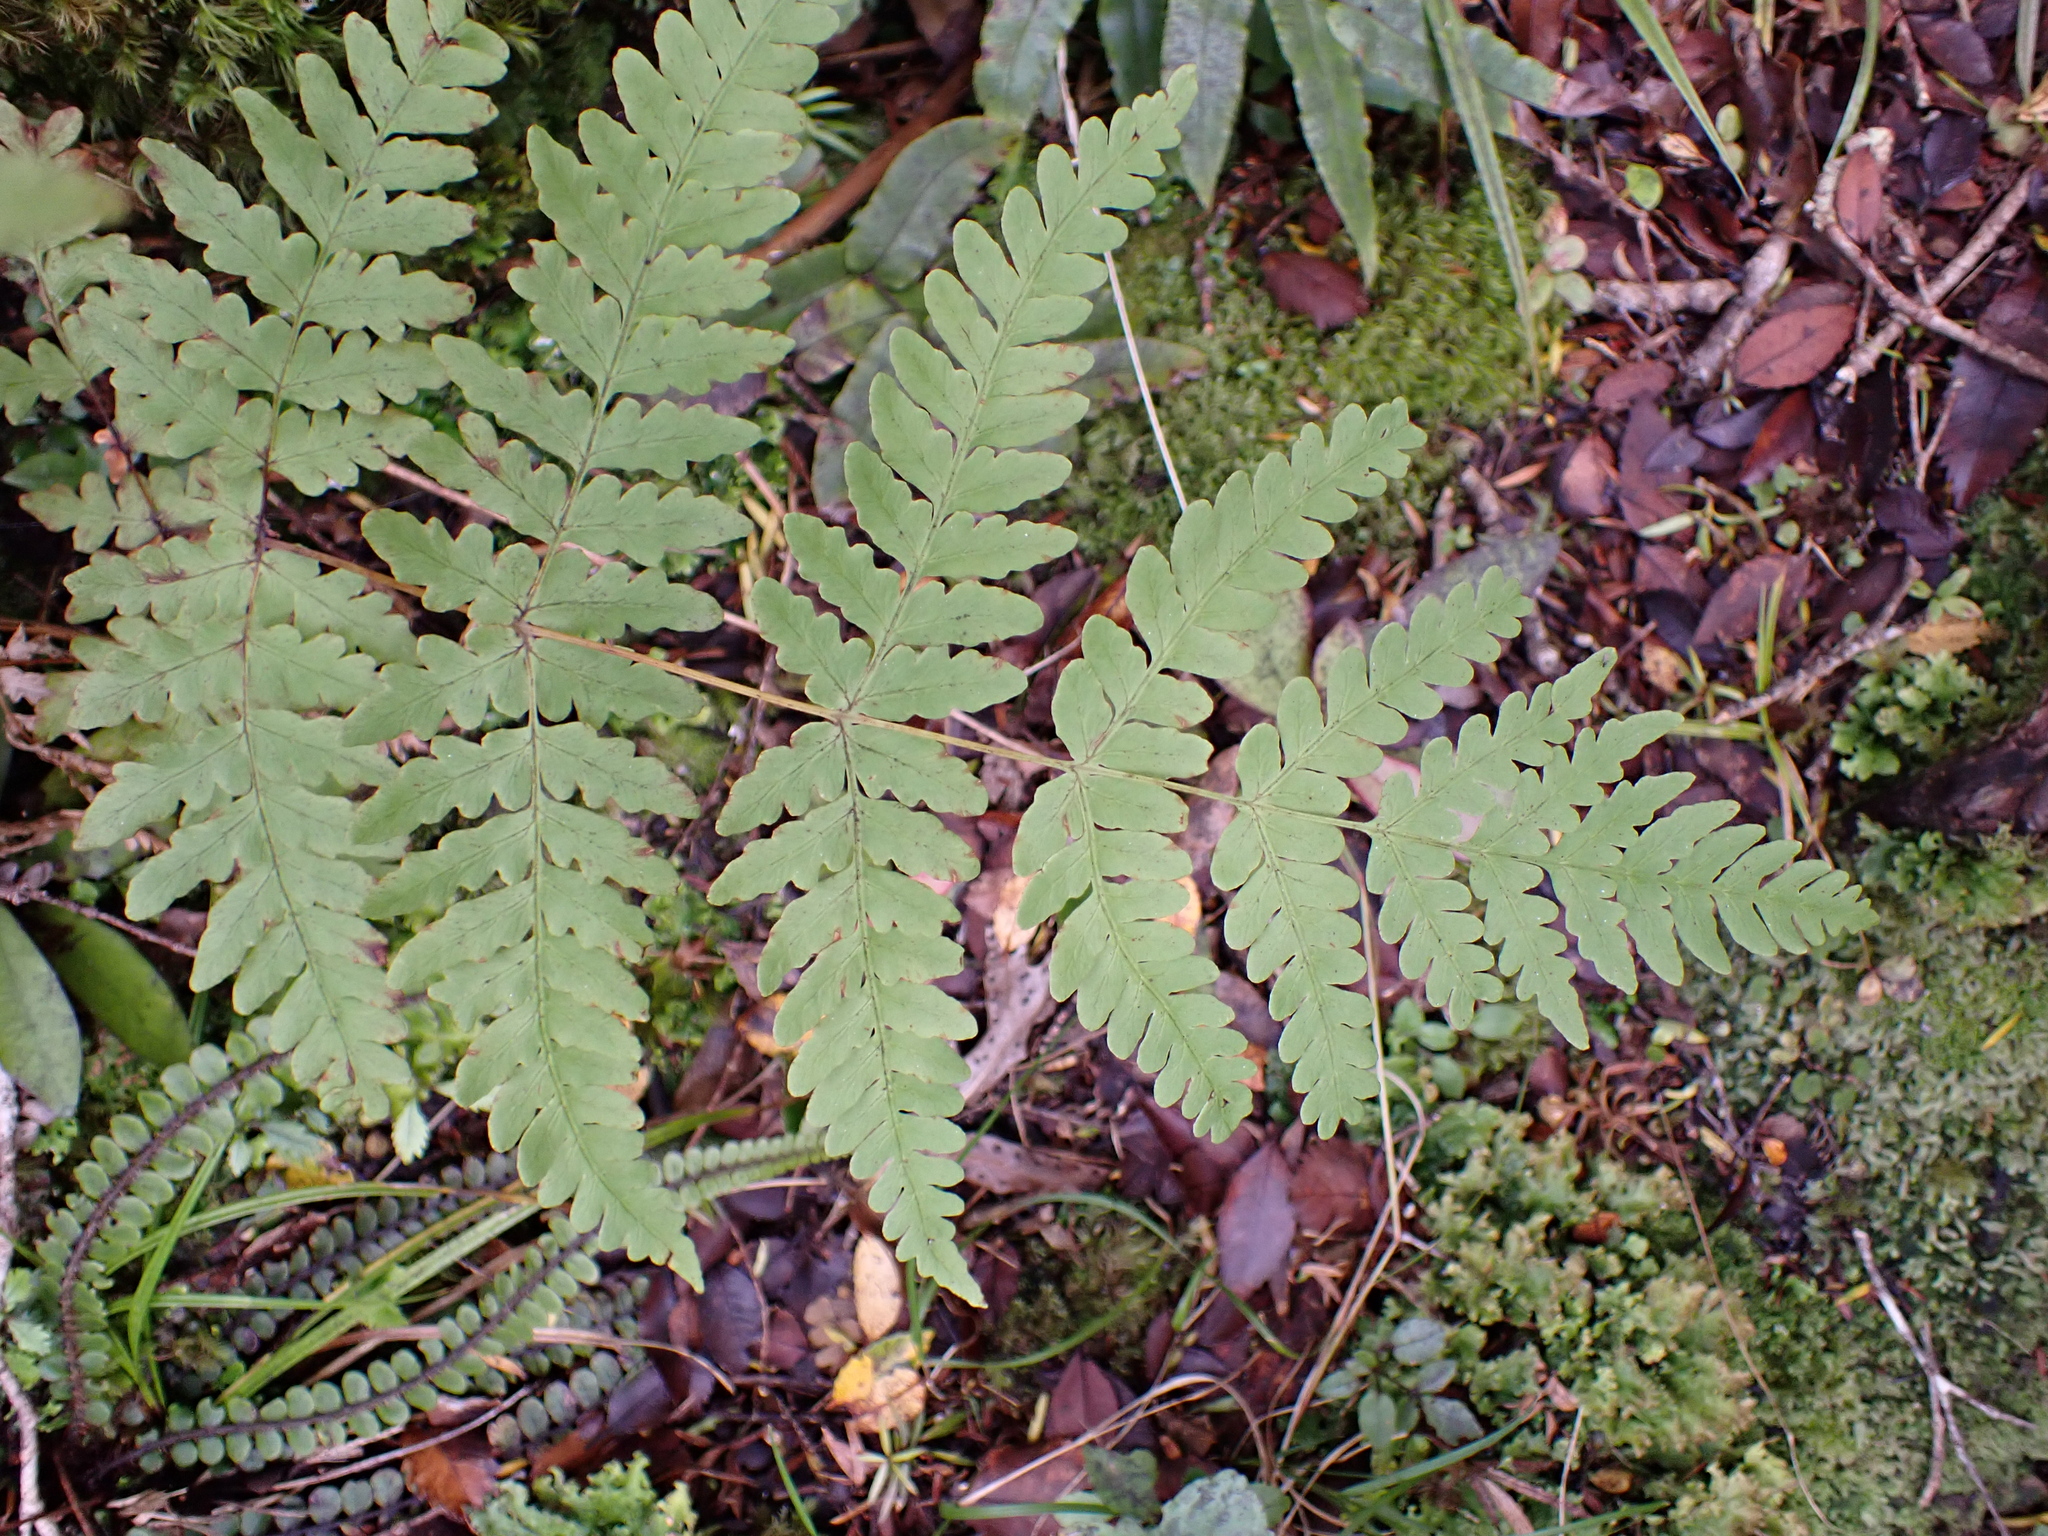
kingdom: Plantae
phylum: Tracheophyta
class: Polypodiopsida
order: Polypodiales
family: Dennstaedtiaceae
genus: Histiopteris
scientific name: Histiopteris incisa
